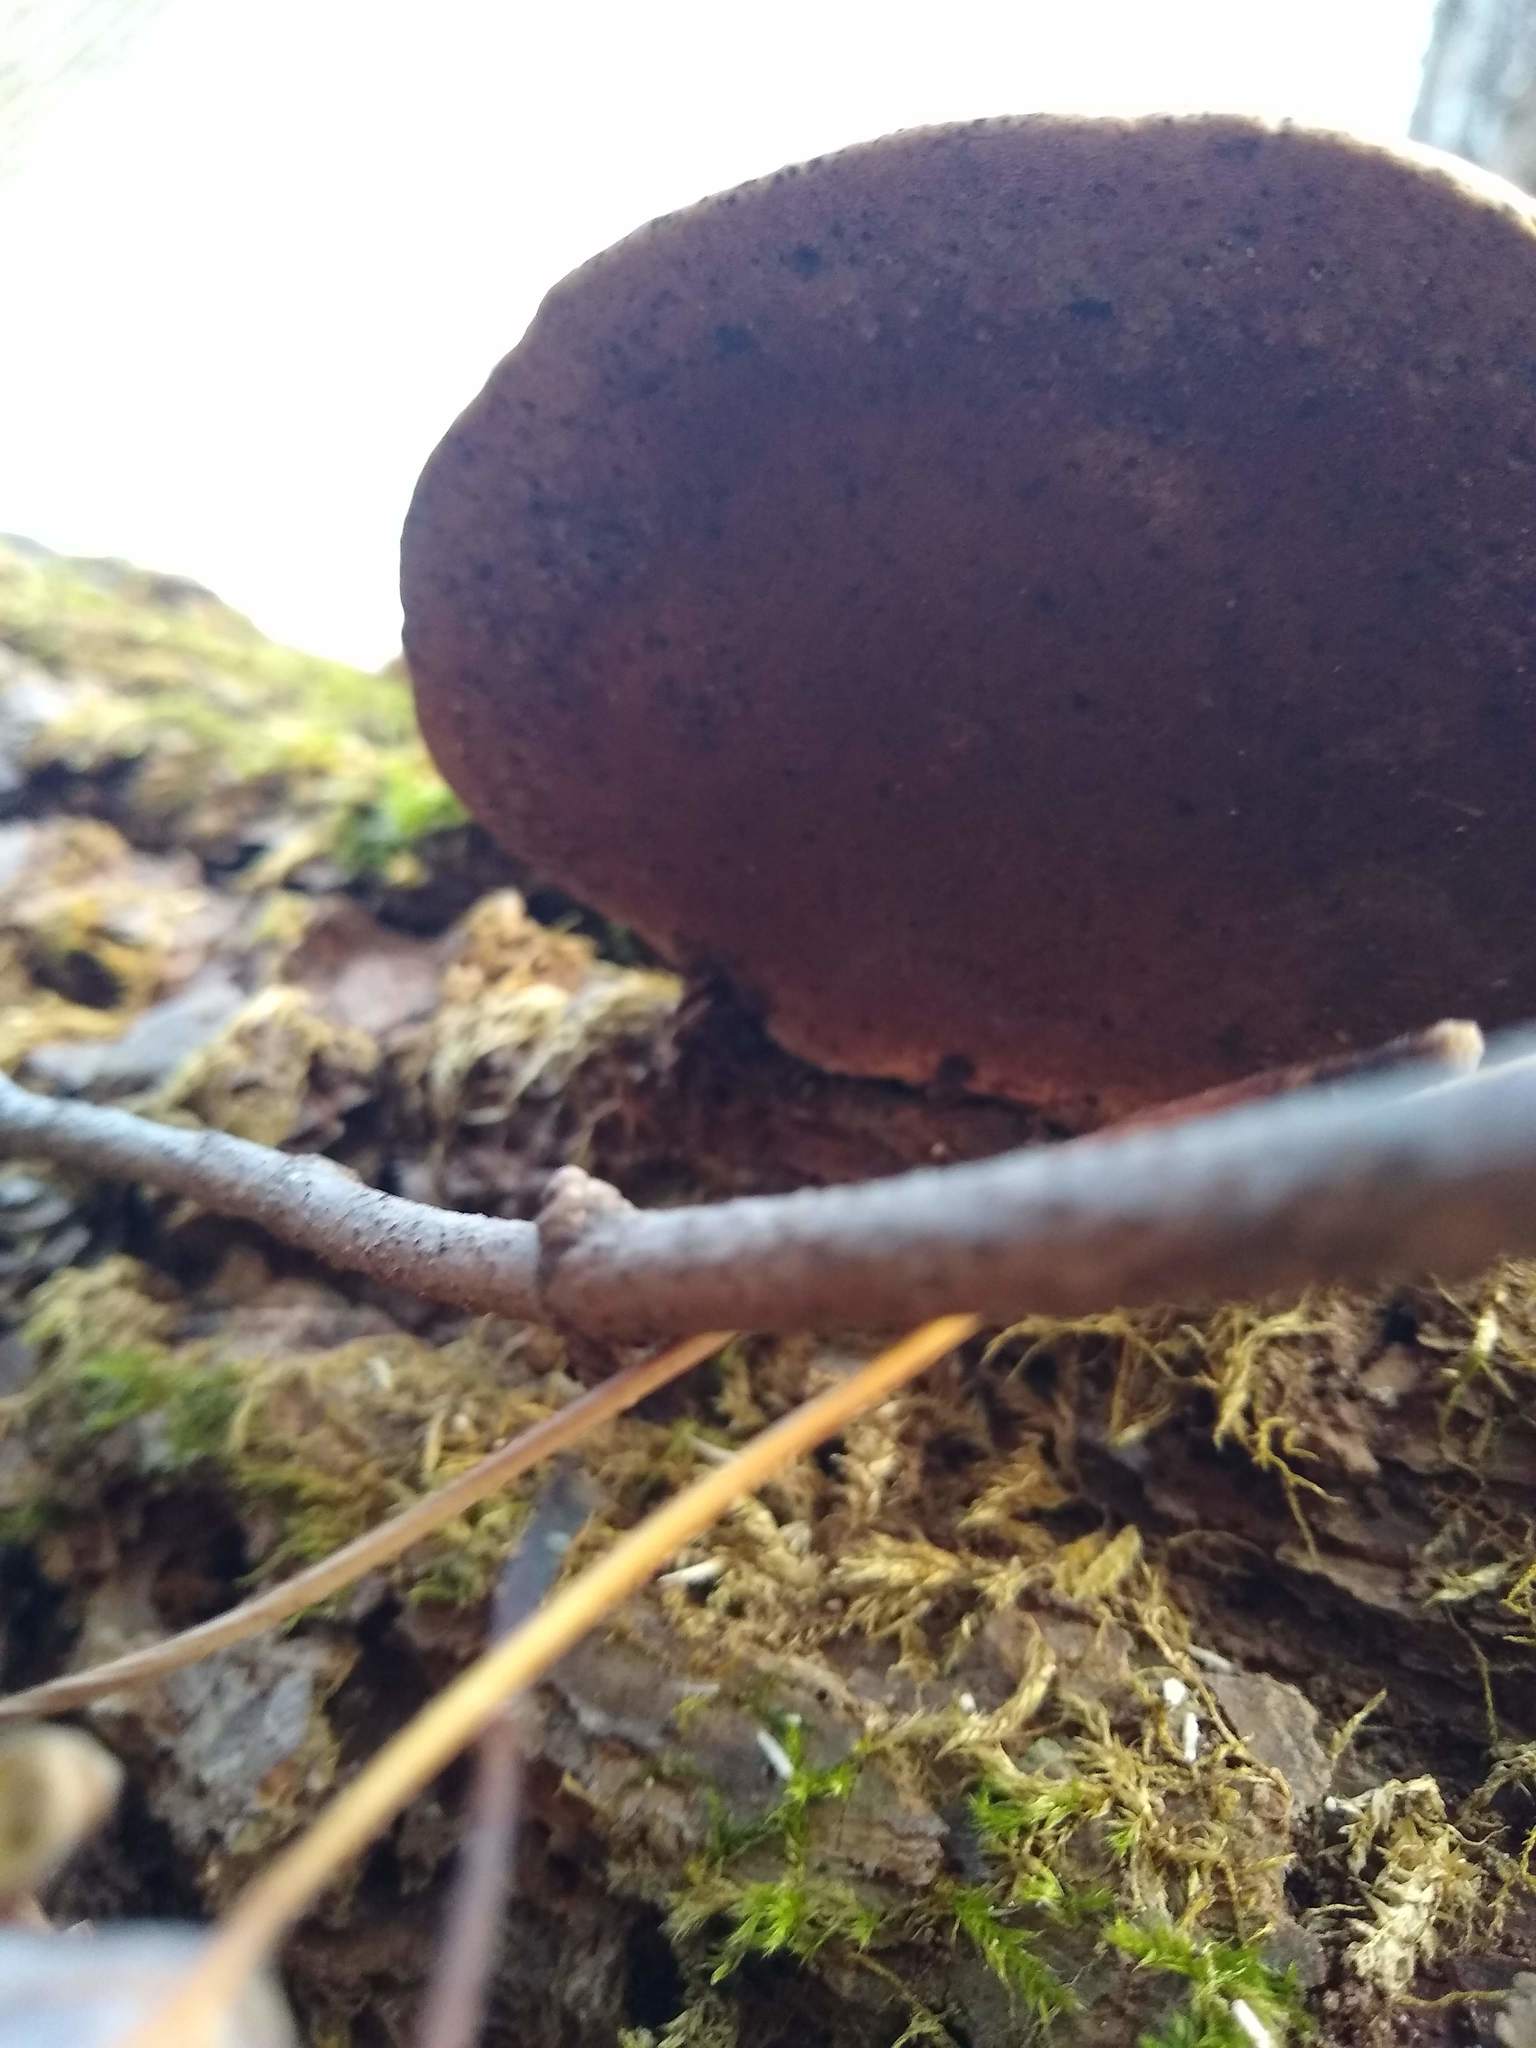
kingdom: Fungi
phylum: Basidiomycota
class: Agaricomycetes
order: Polyporales
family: Polyporaceae
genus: Ganoderma
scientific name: Ganoderma applanatum
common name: Artist's bracket
